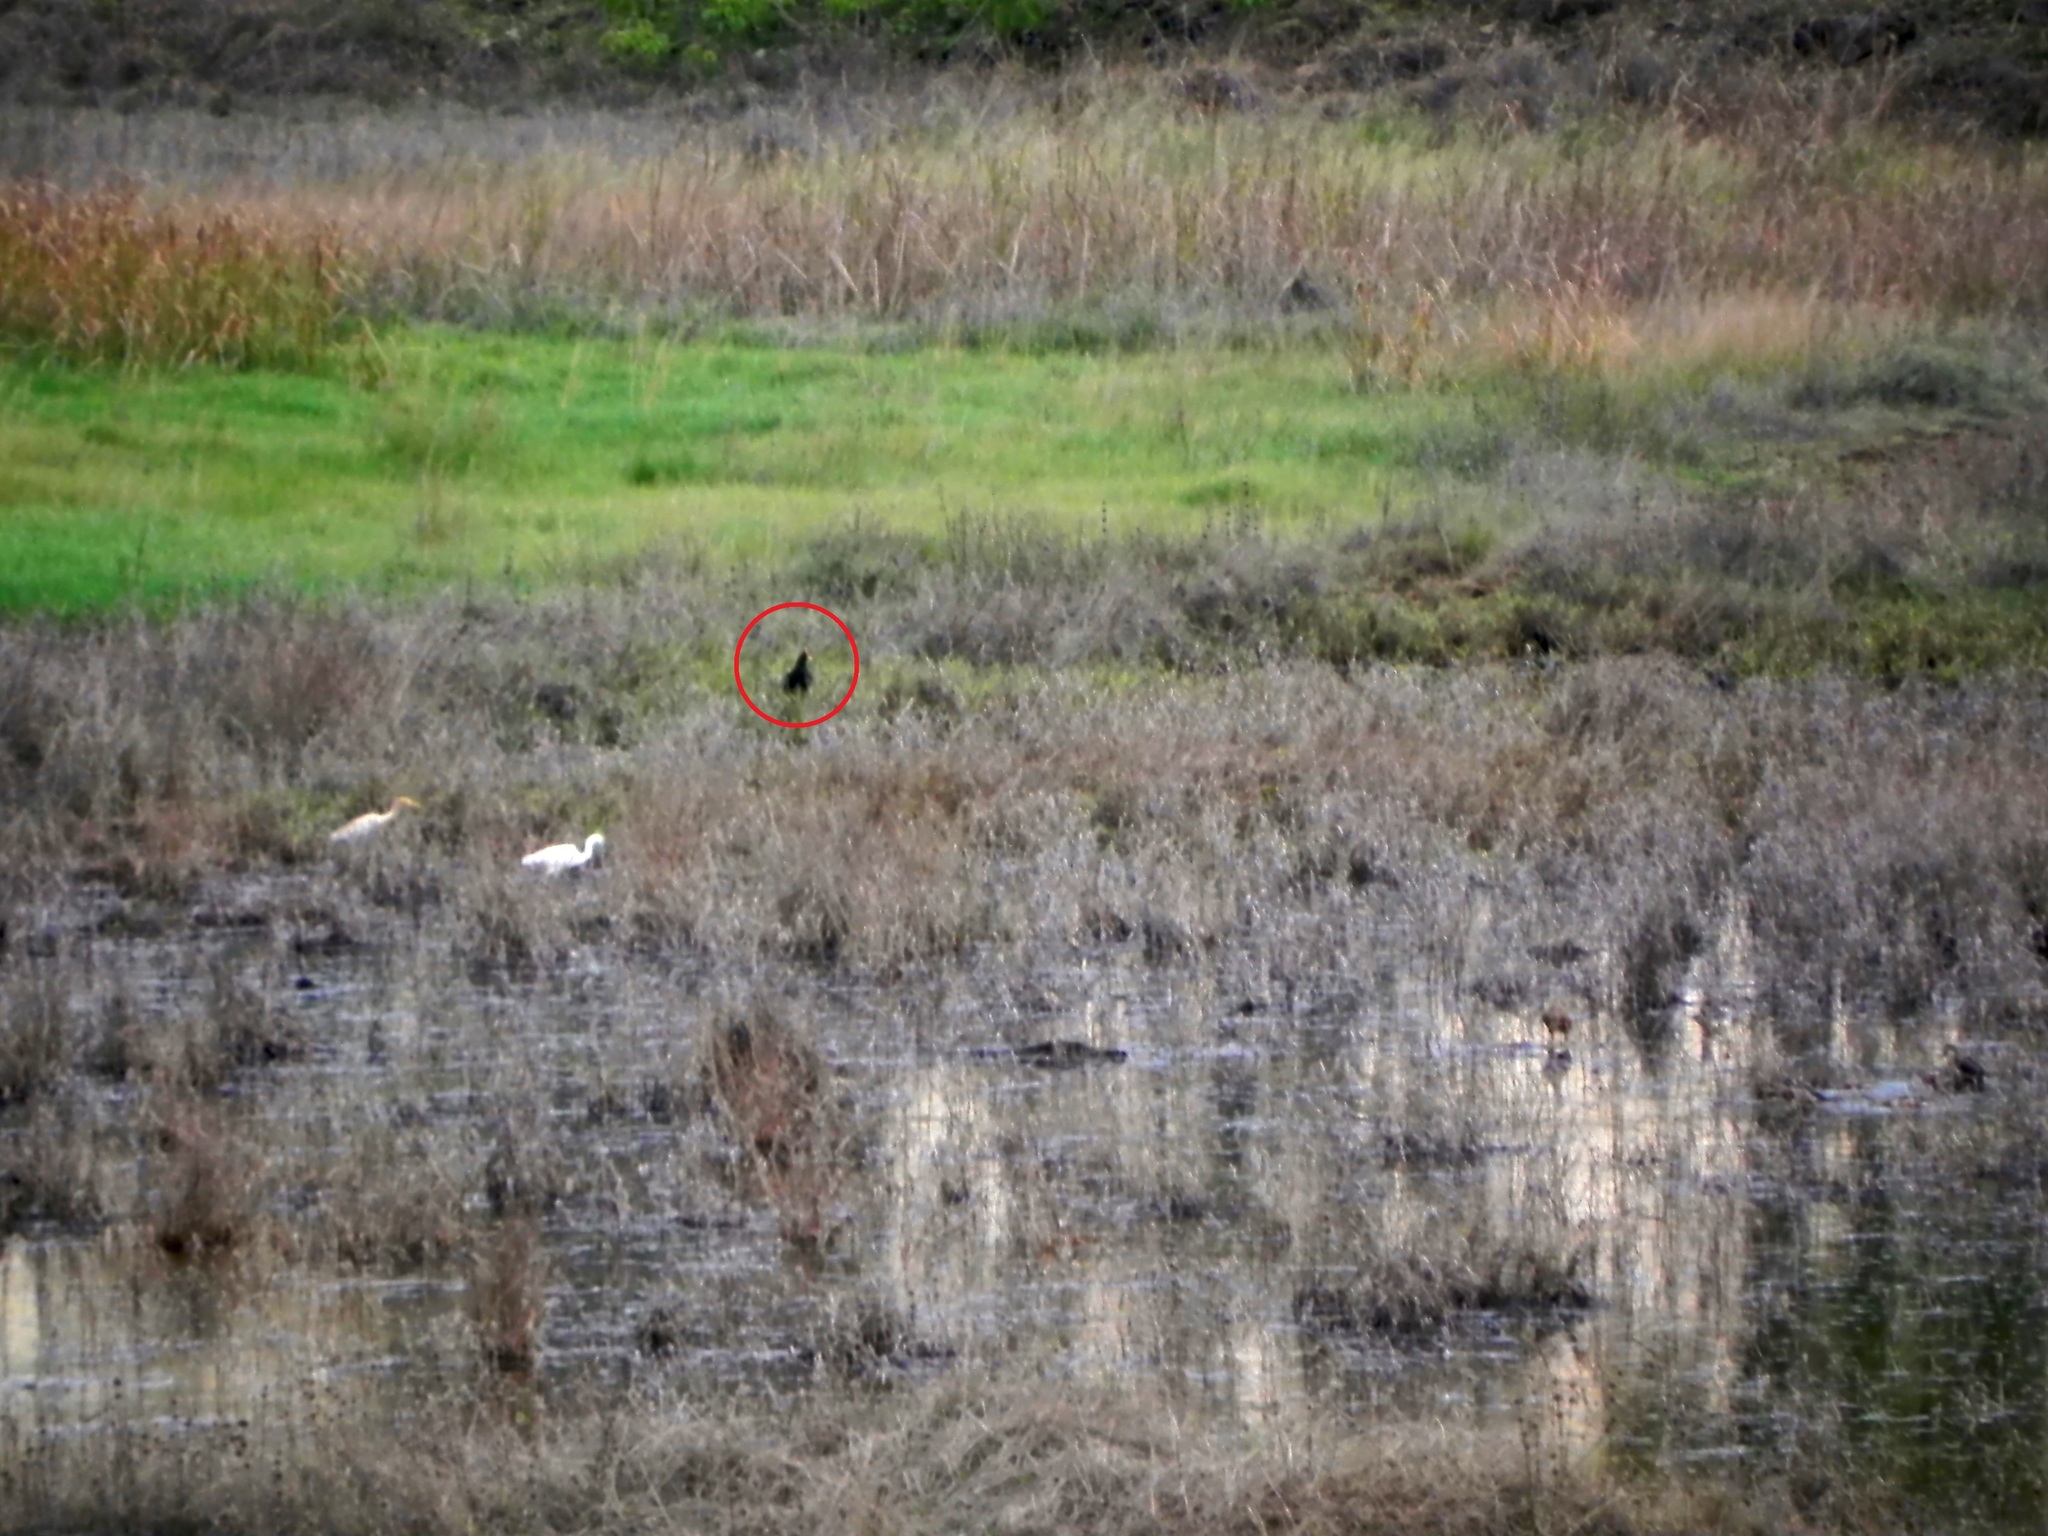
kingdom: Animalia
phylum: Chordata
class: Aves
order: Gruiformes
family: Rallidae
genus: Gallicrex
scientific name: Gallicrex cinerea
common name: Watercock
